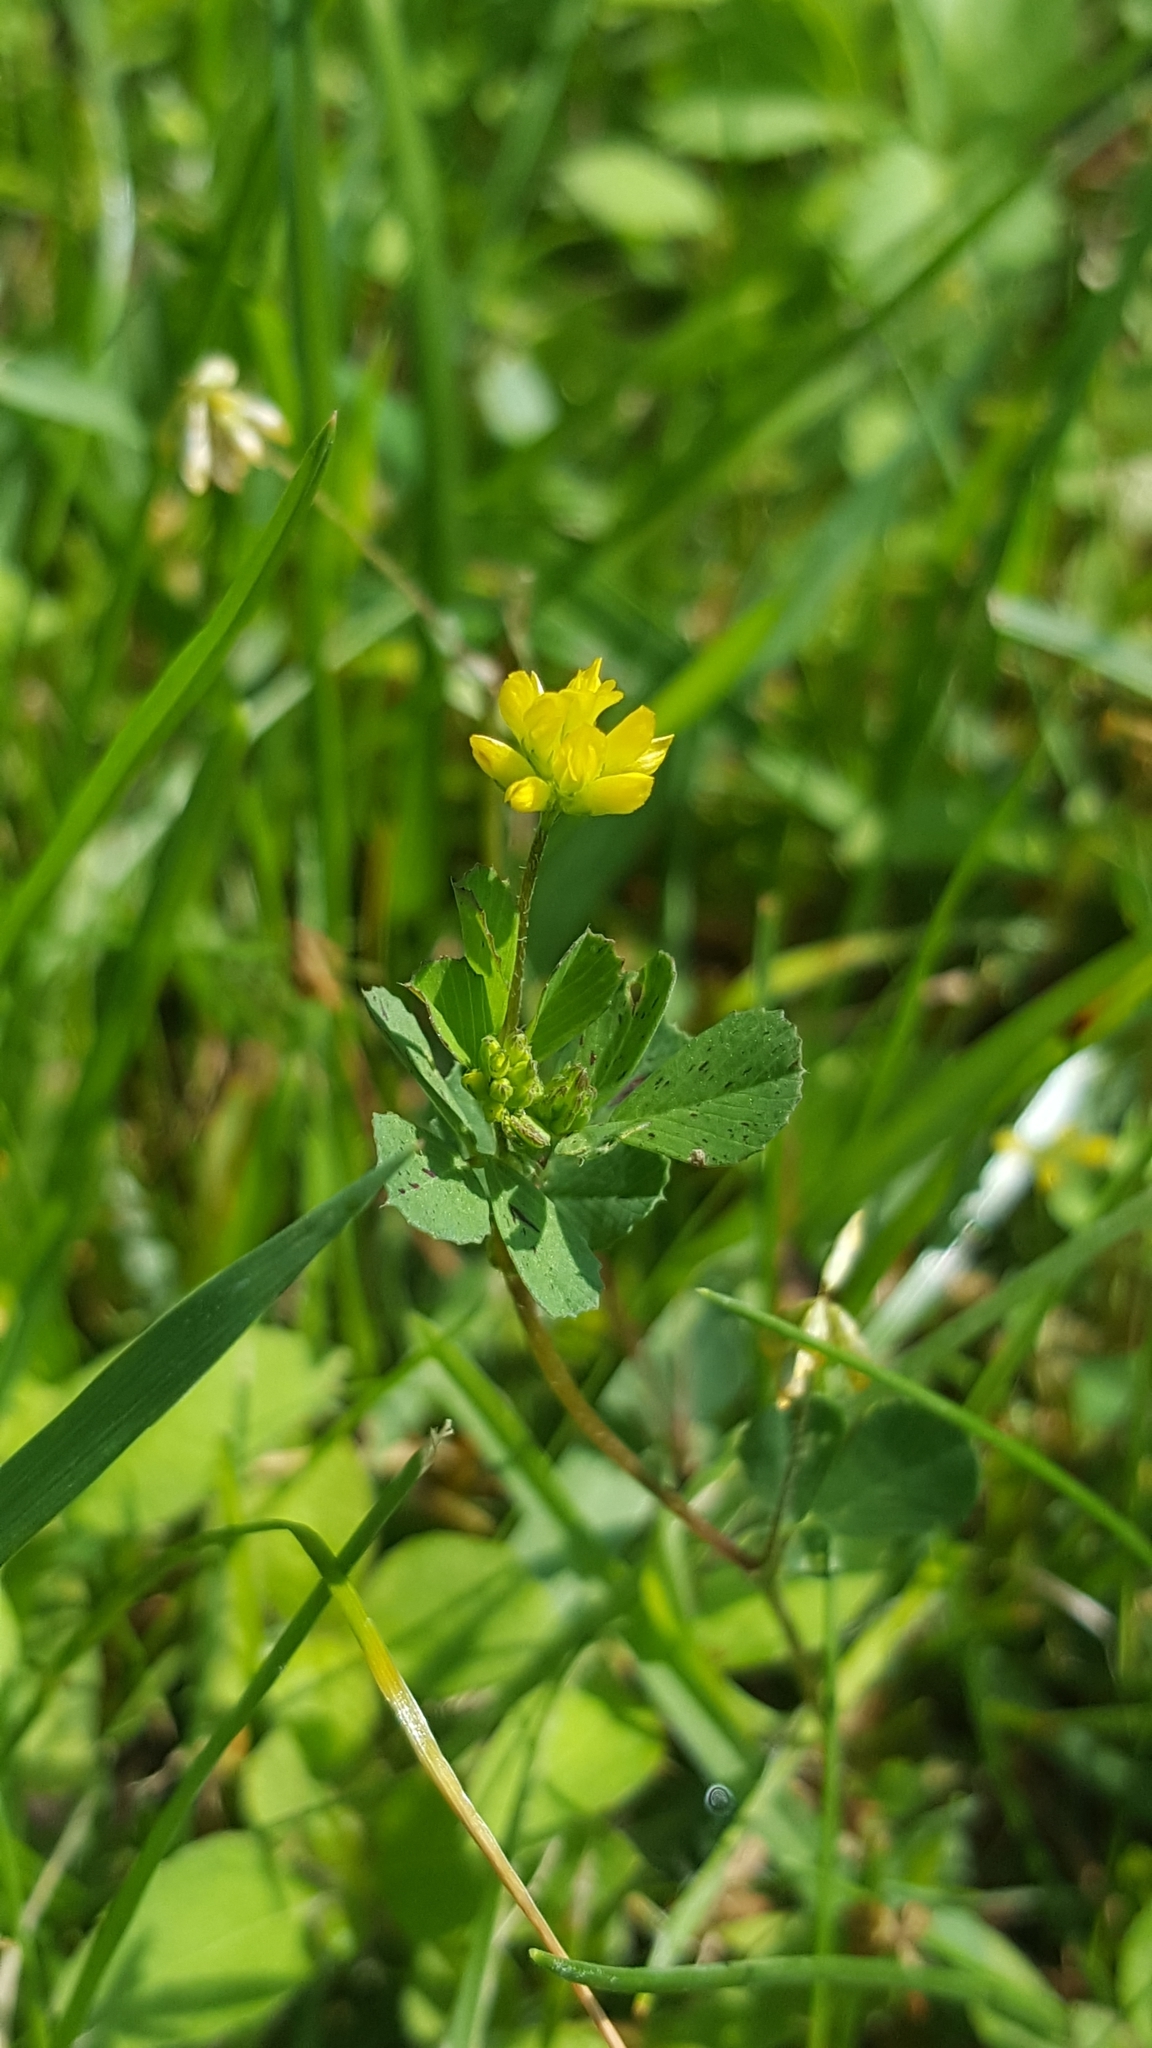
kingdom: Plantae
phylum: Tracheophyta
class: Magnoliopsida
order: Fabales
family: Fabaceae
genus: Trifolium
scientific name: Trifolium dubium
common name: Suckling clover
